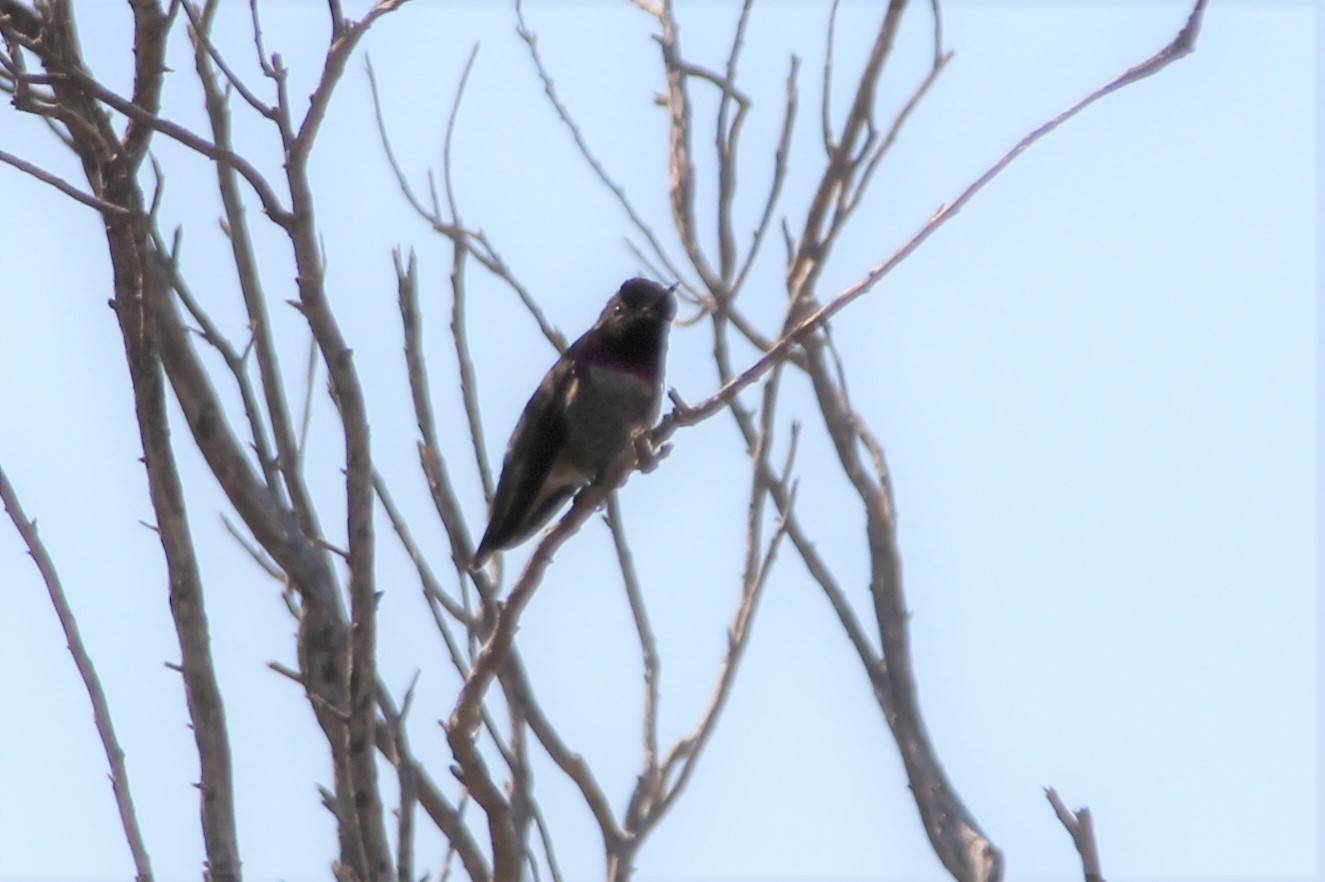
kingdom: Animalia
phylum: Chordata
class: Aves
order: Apodiformes
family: Trochilidae
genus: Calypte
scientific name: Calypte anna
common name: Anna's hummingbird
